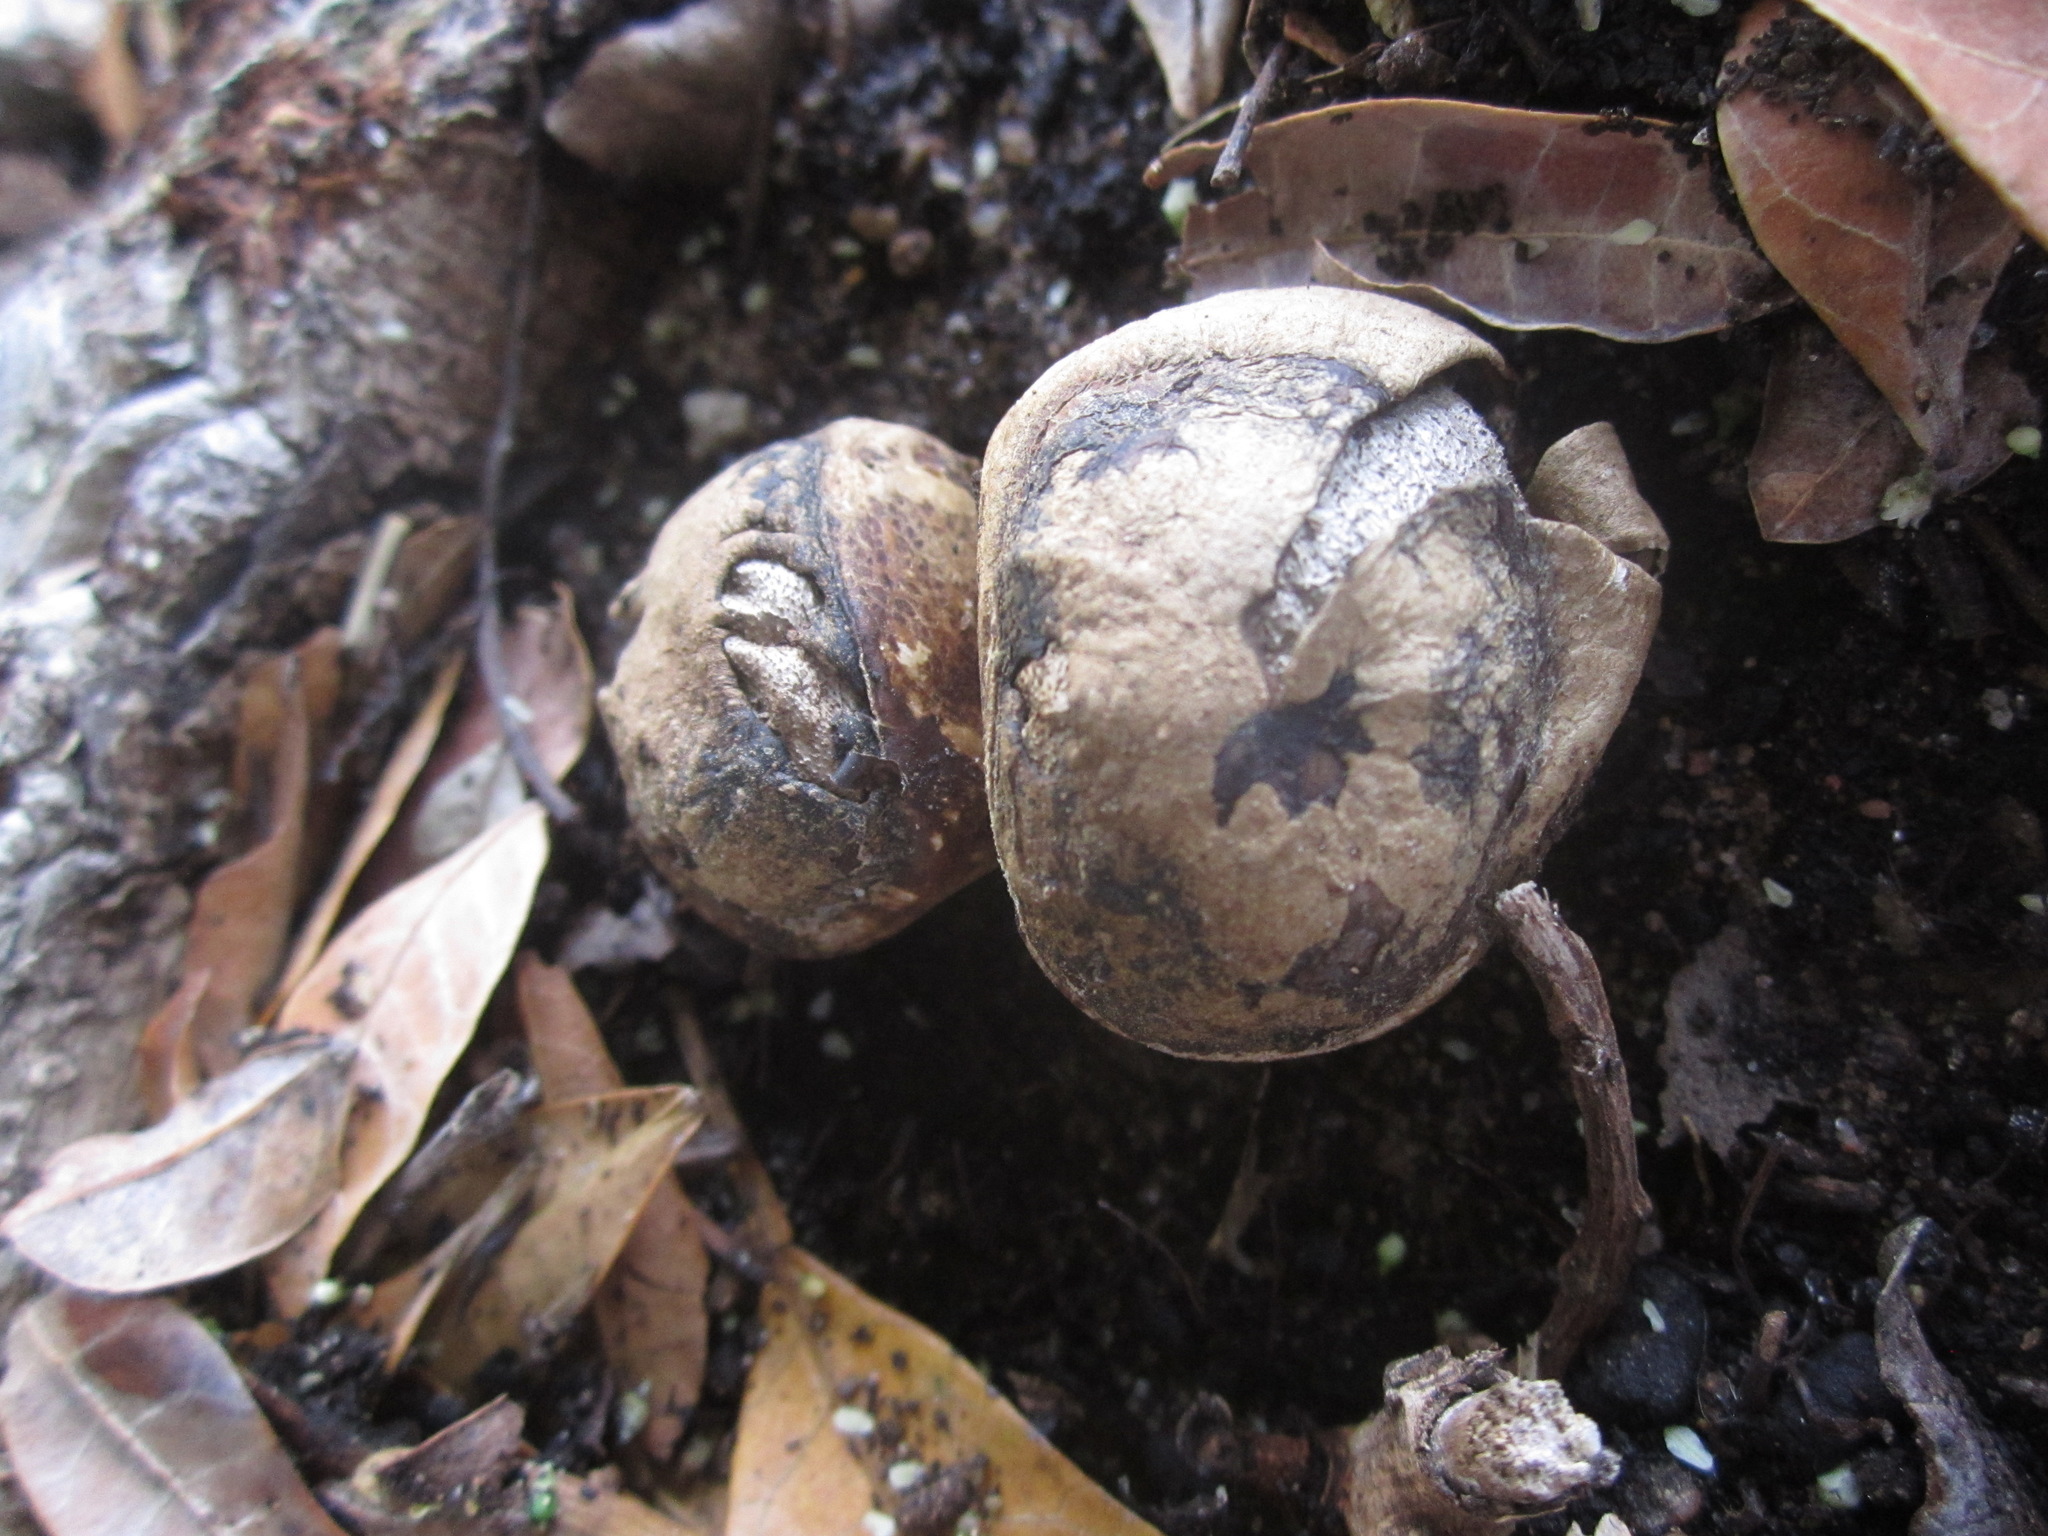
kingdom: Fungi
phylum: Basidiomycota
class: Agaricomycetes
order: Geastrales
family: Geastraceae
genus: Myriostoma
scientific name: Myriostoma coliforme
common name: Pepper pot
